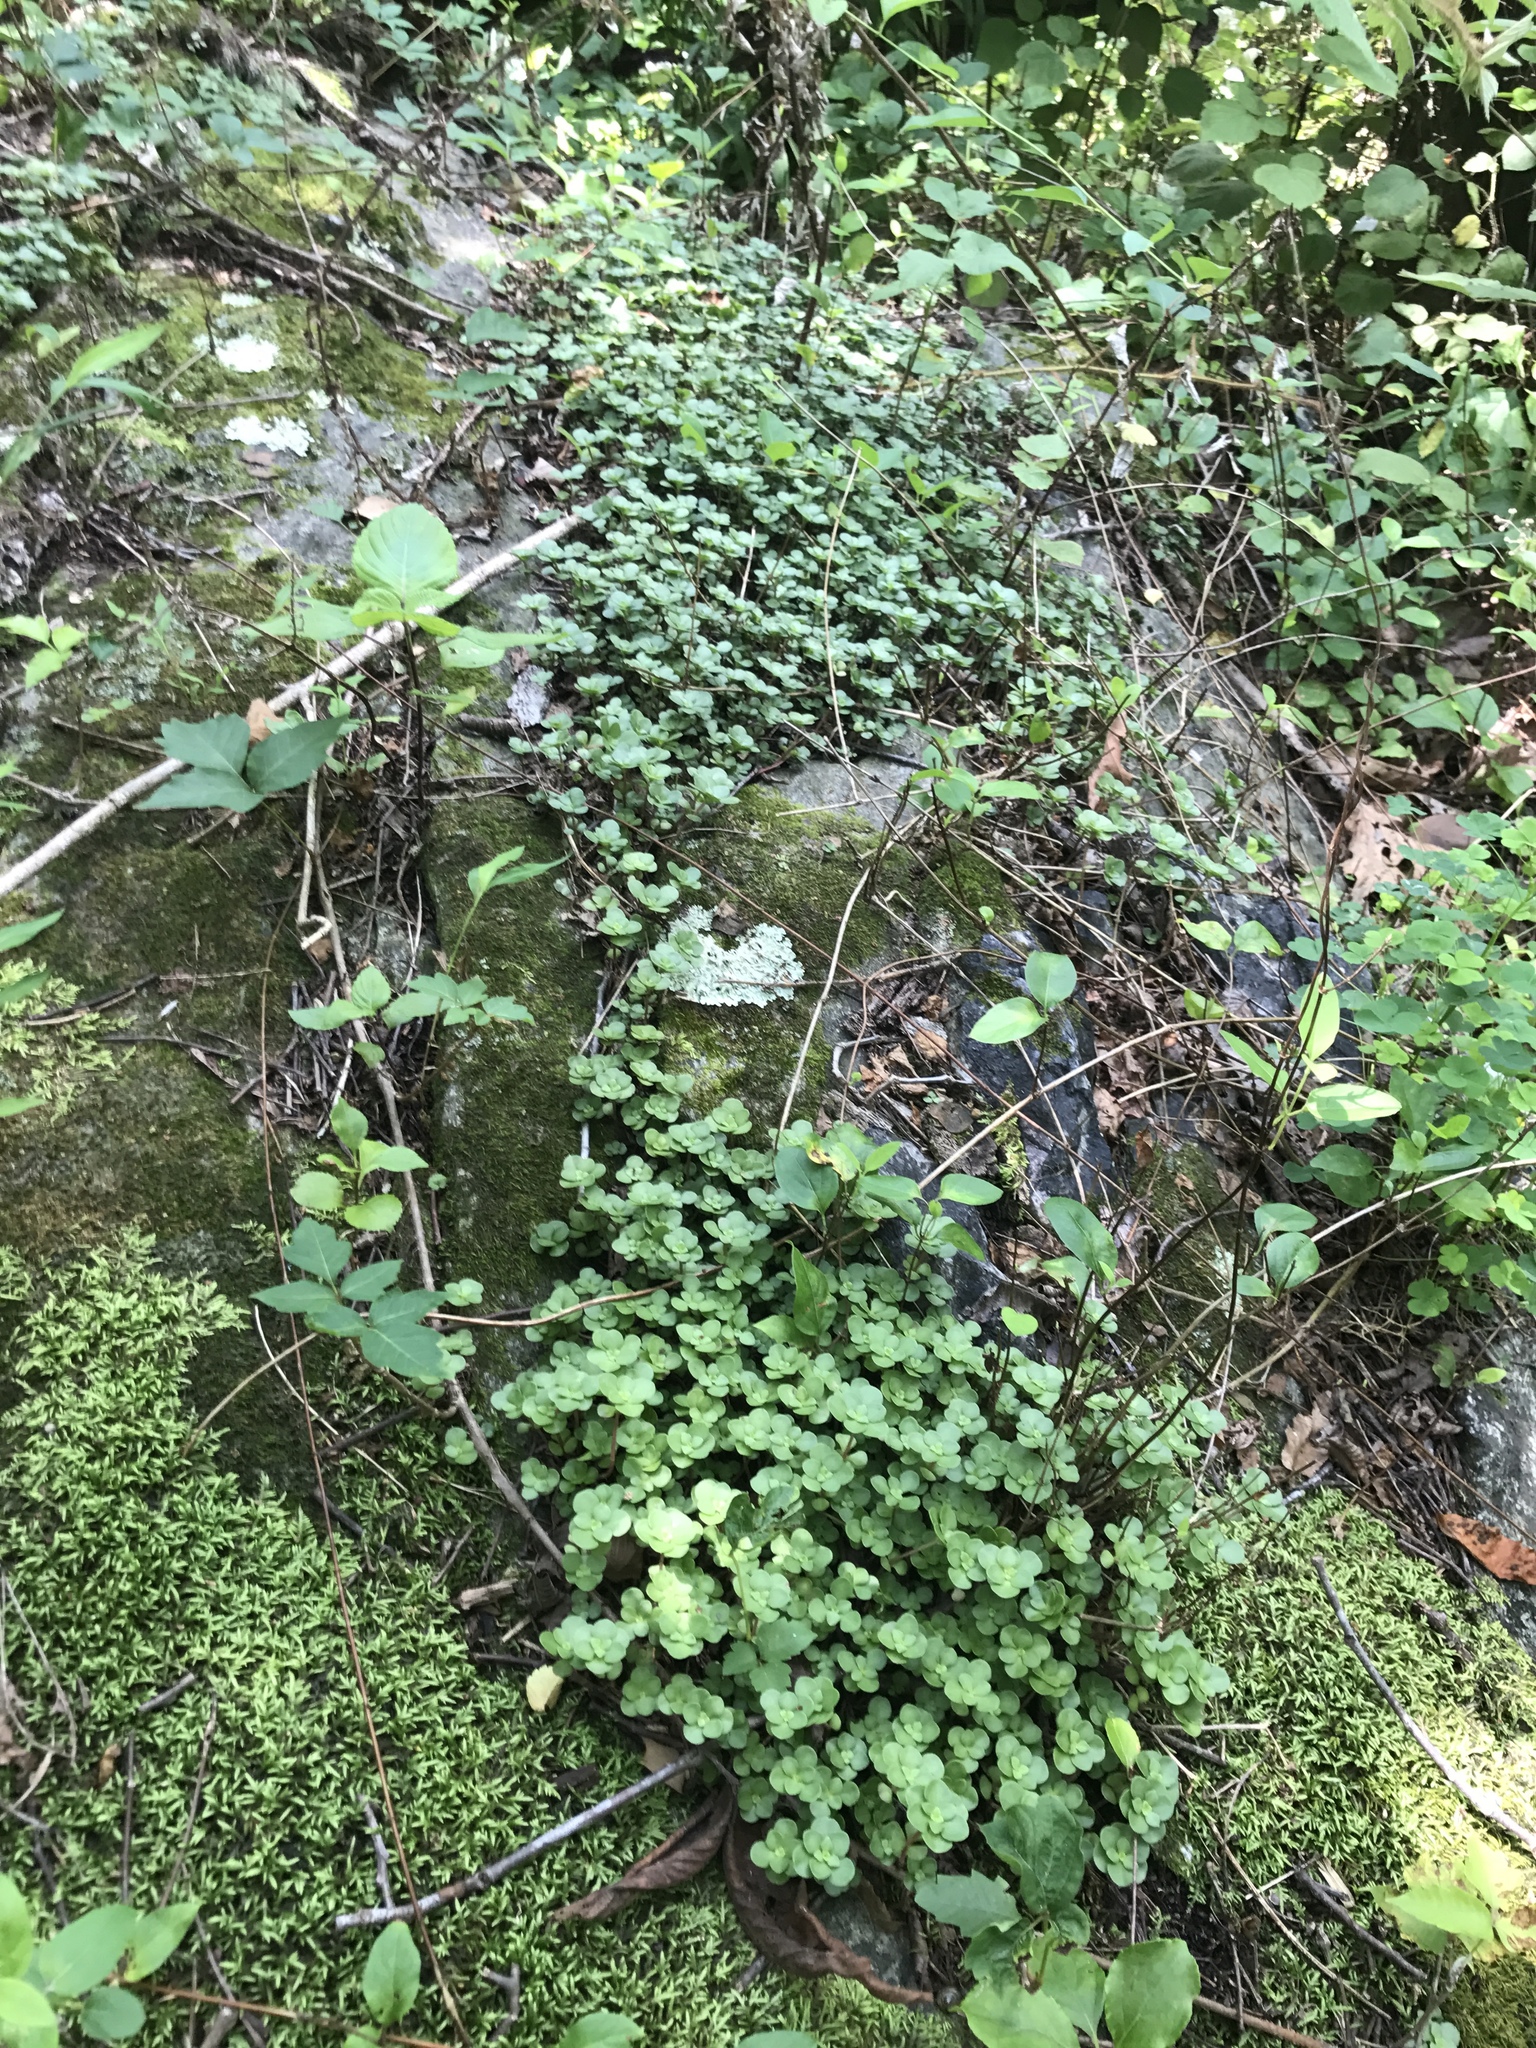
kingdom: Plantae
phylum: Tracheophyta
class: Magnoliopsida
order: Saxifragales
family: Crassulaceae
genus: Sedum
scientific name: Sedum ternatum
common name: Wild stonecrop
